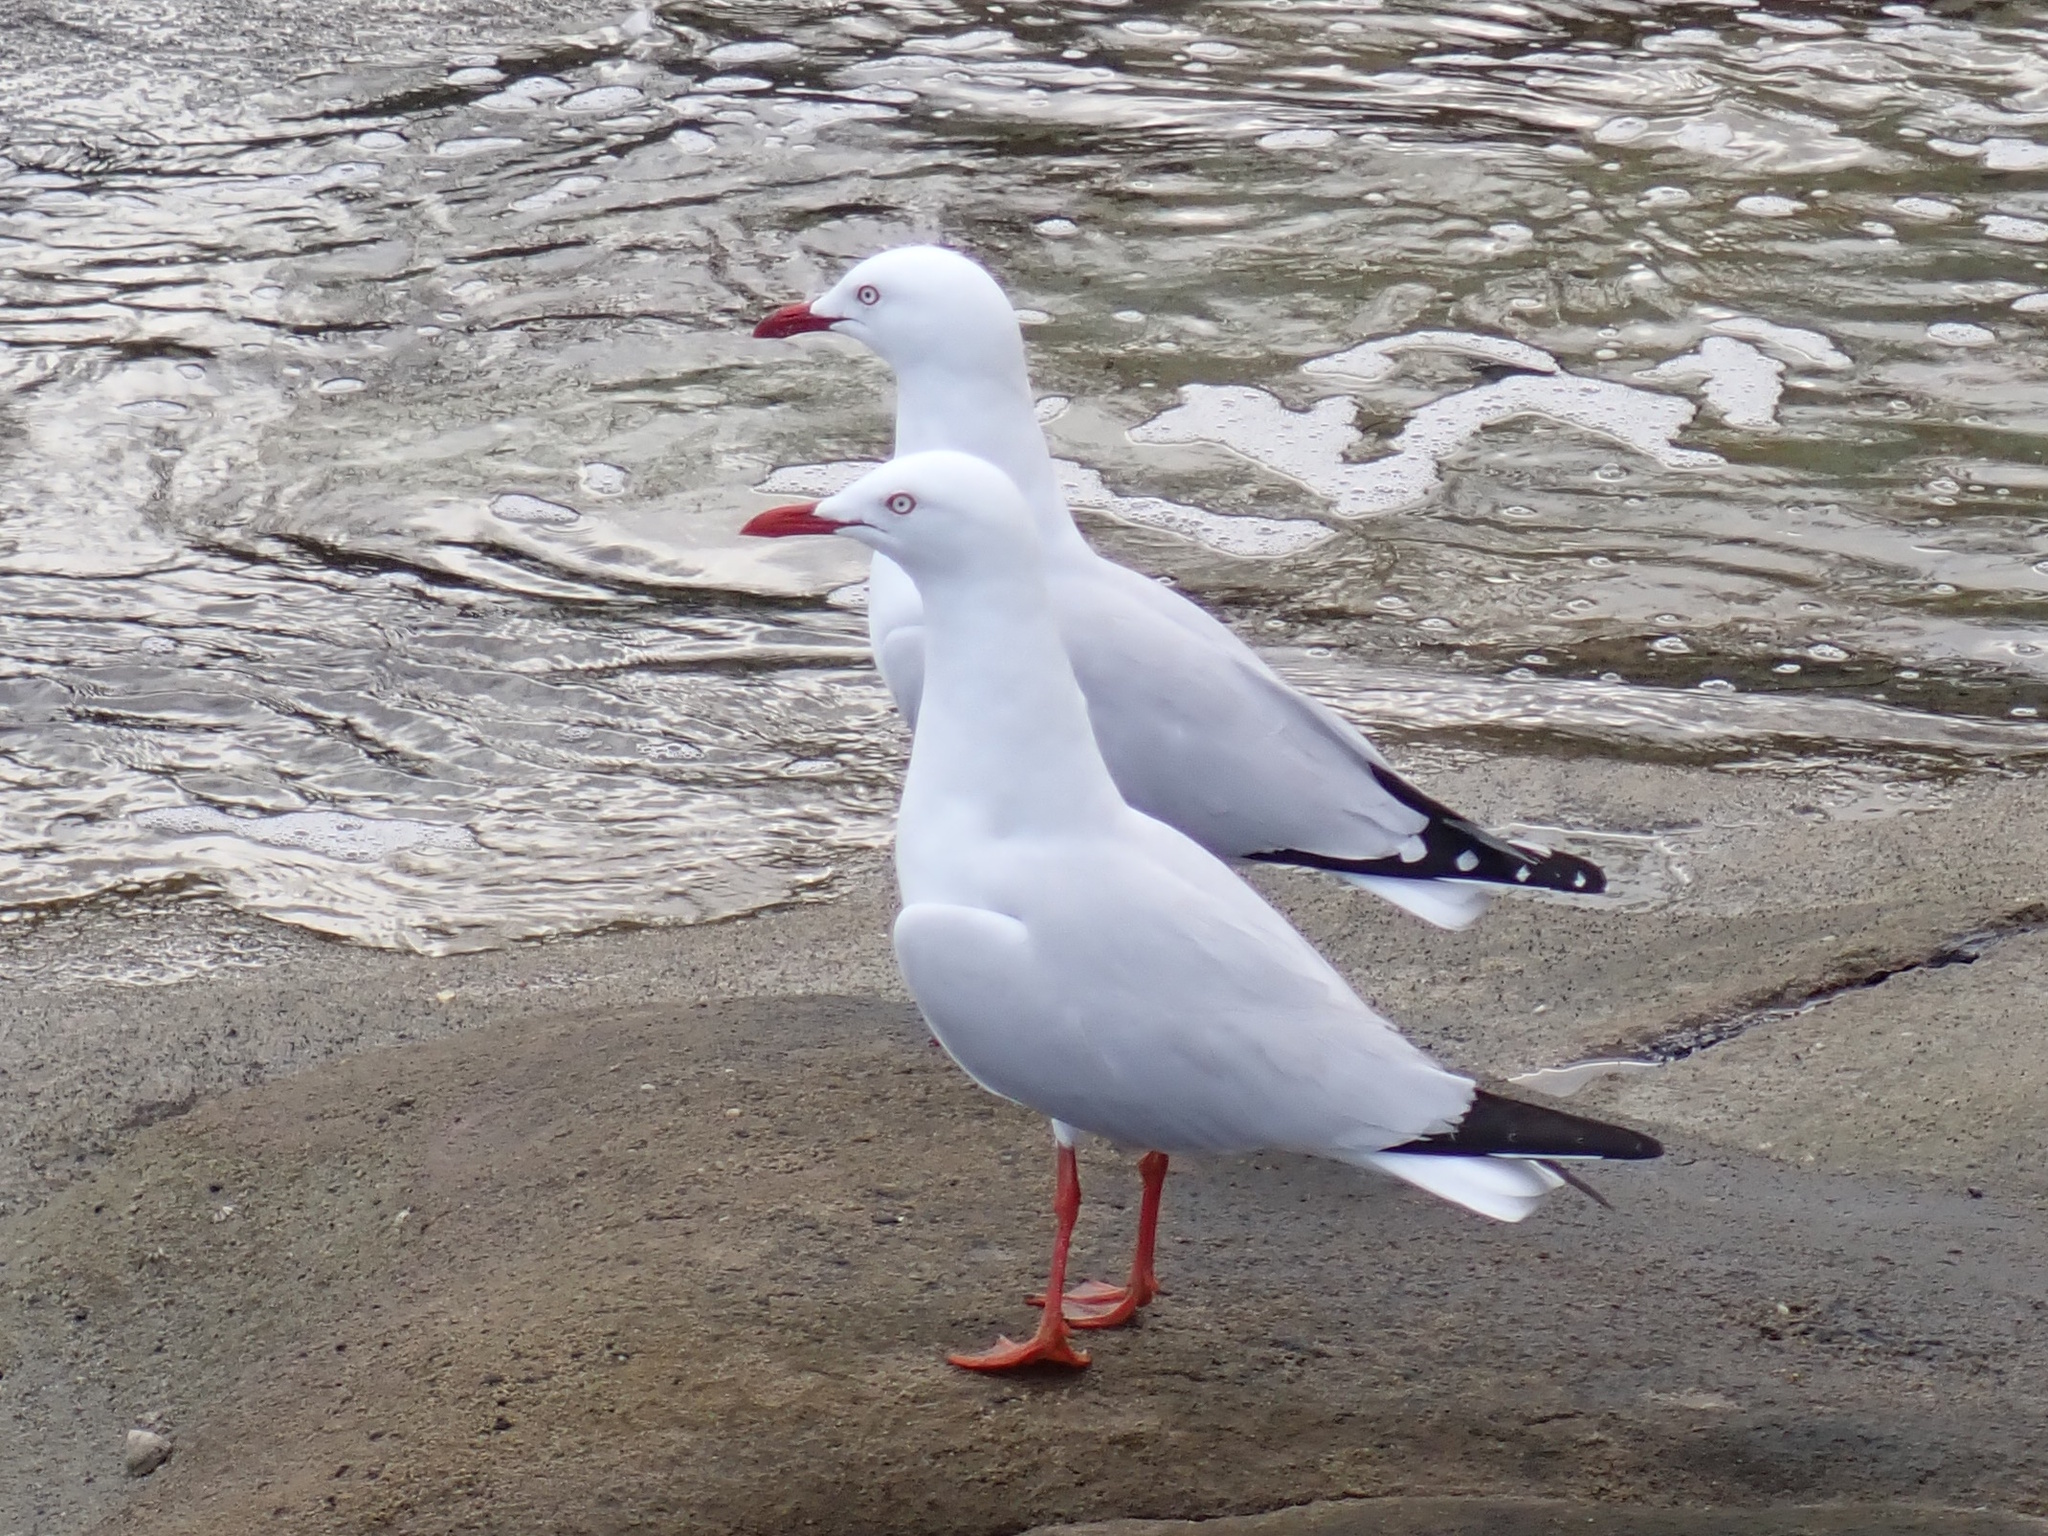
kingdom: Animalia
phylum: Chordata
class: Aves
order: Charadriiformes
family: Laridae
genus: Chroicocephalus
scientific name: Chroicocephalus novaehollandiae
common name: Silver gull
